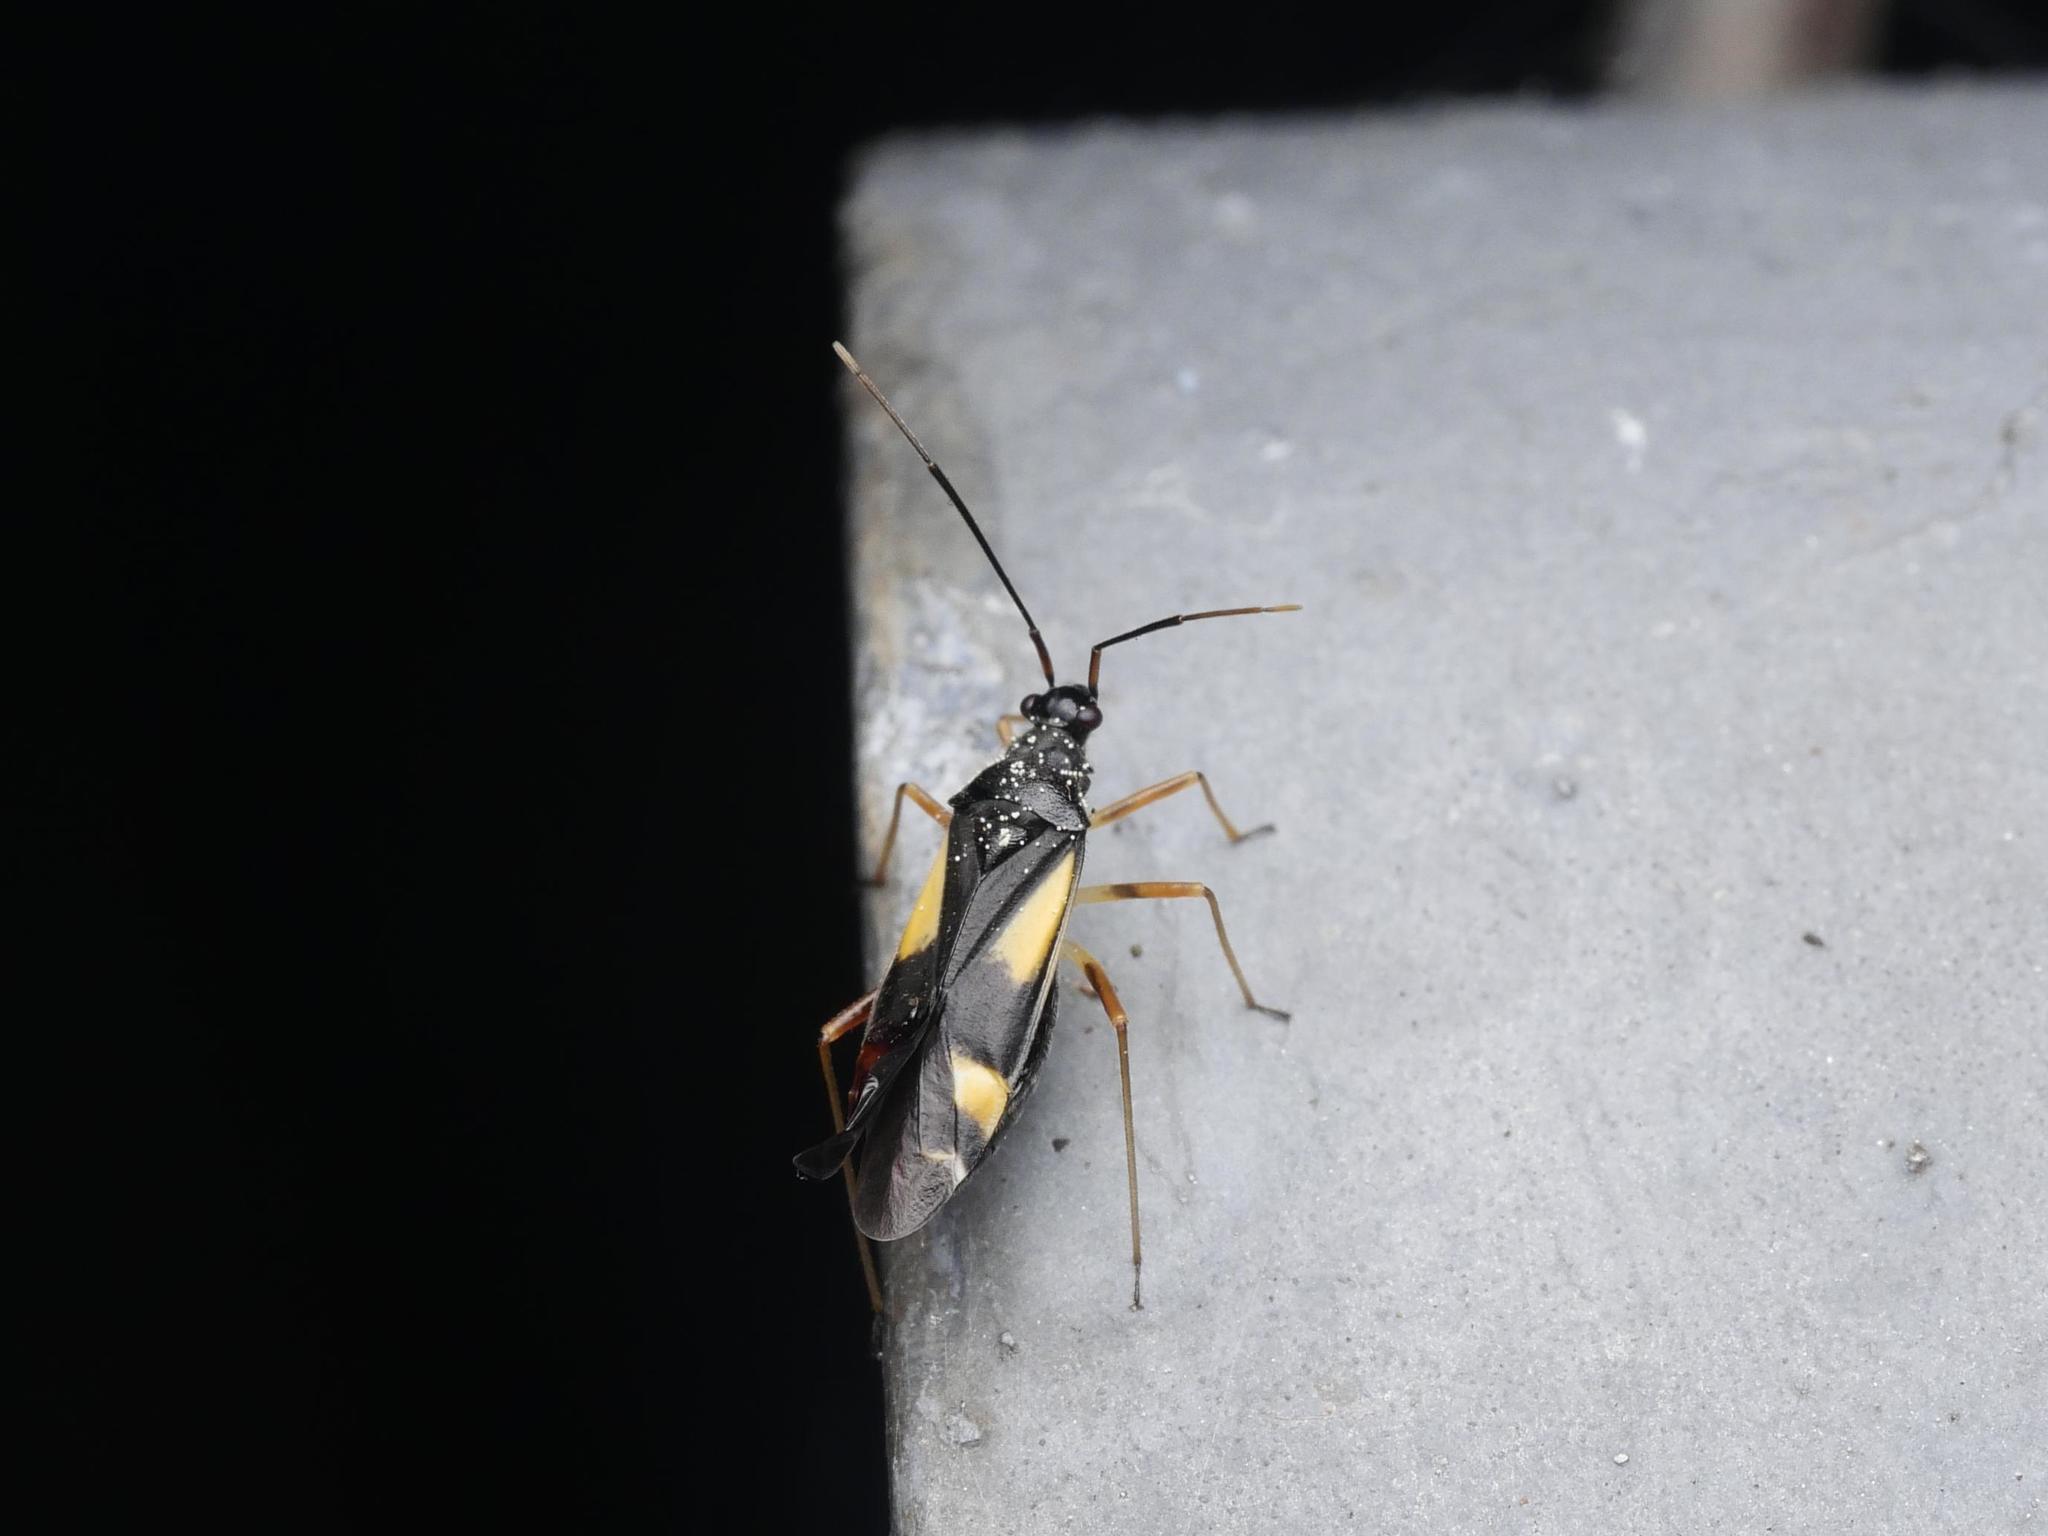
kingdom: Animalia
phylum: Arthropoda
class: Insecta
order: Hemiptera
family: Miridae
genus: Dryophilocoris
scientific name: Dryophilocoris flavoquadrimaculatus
